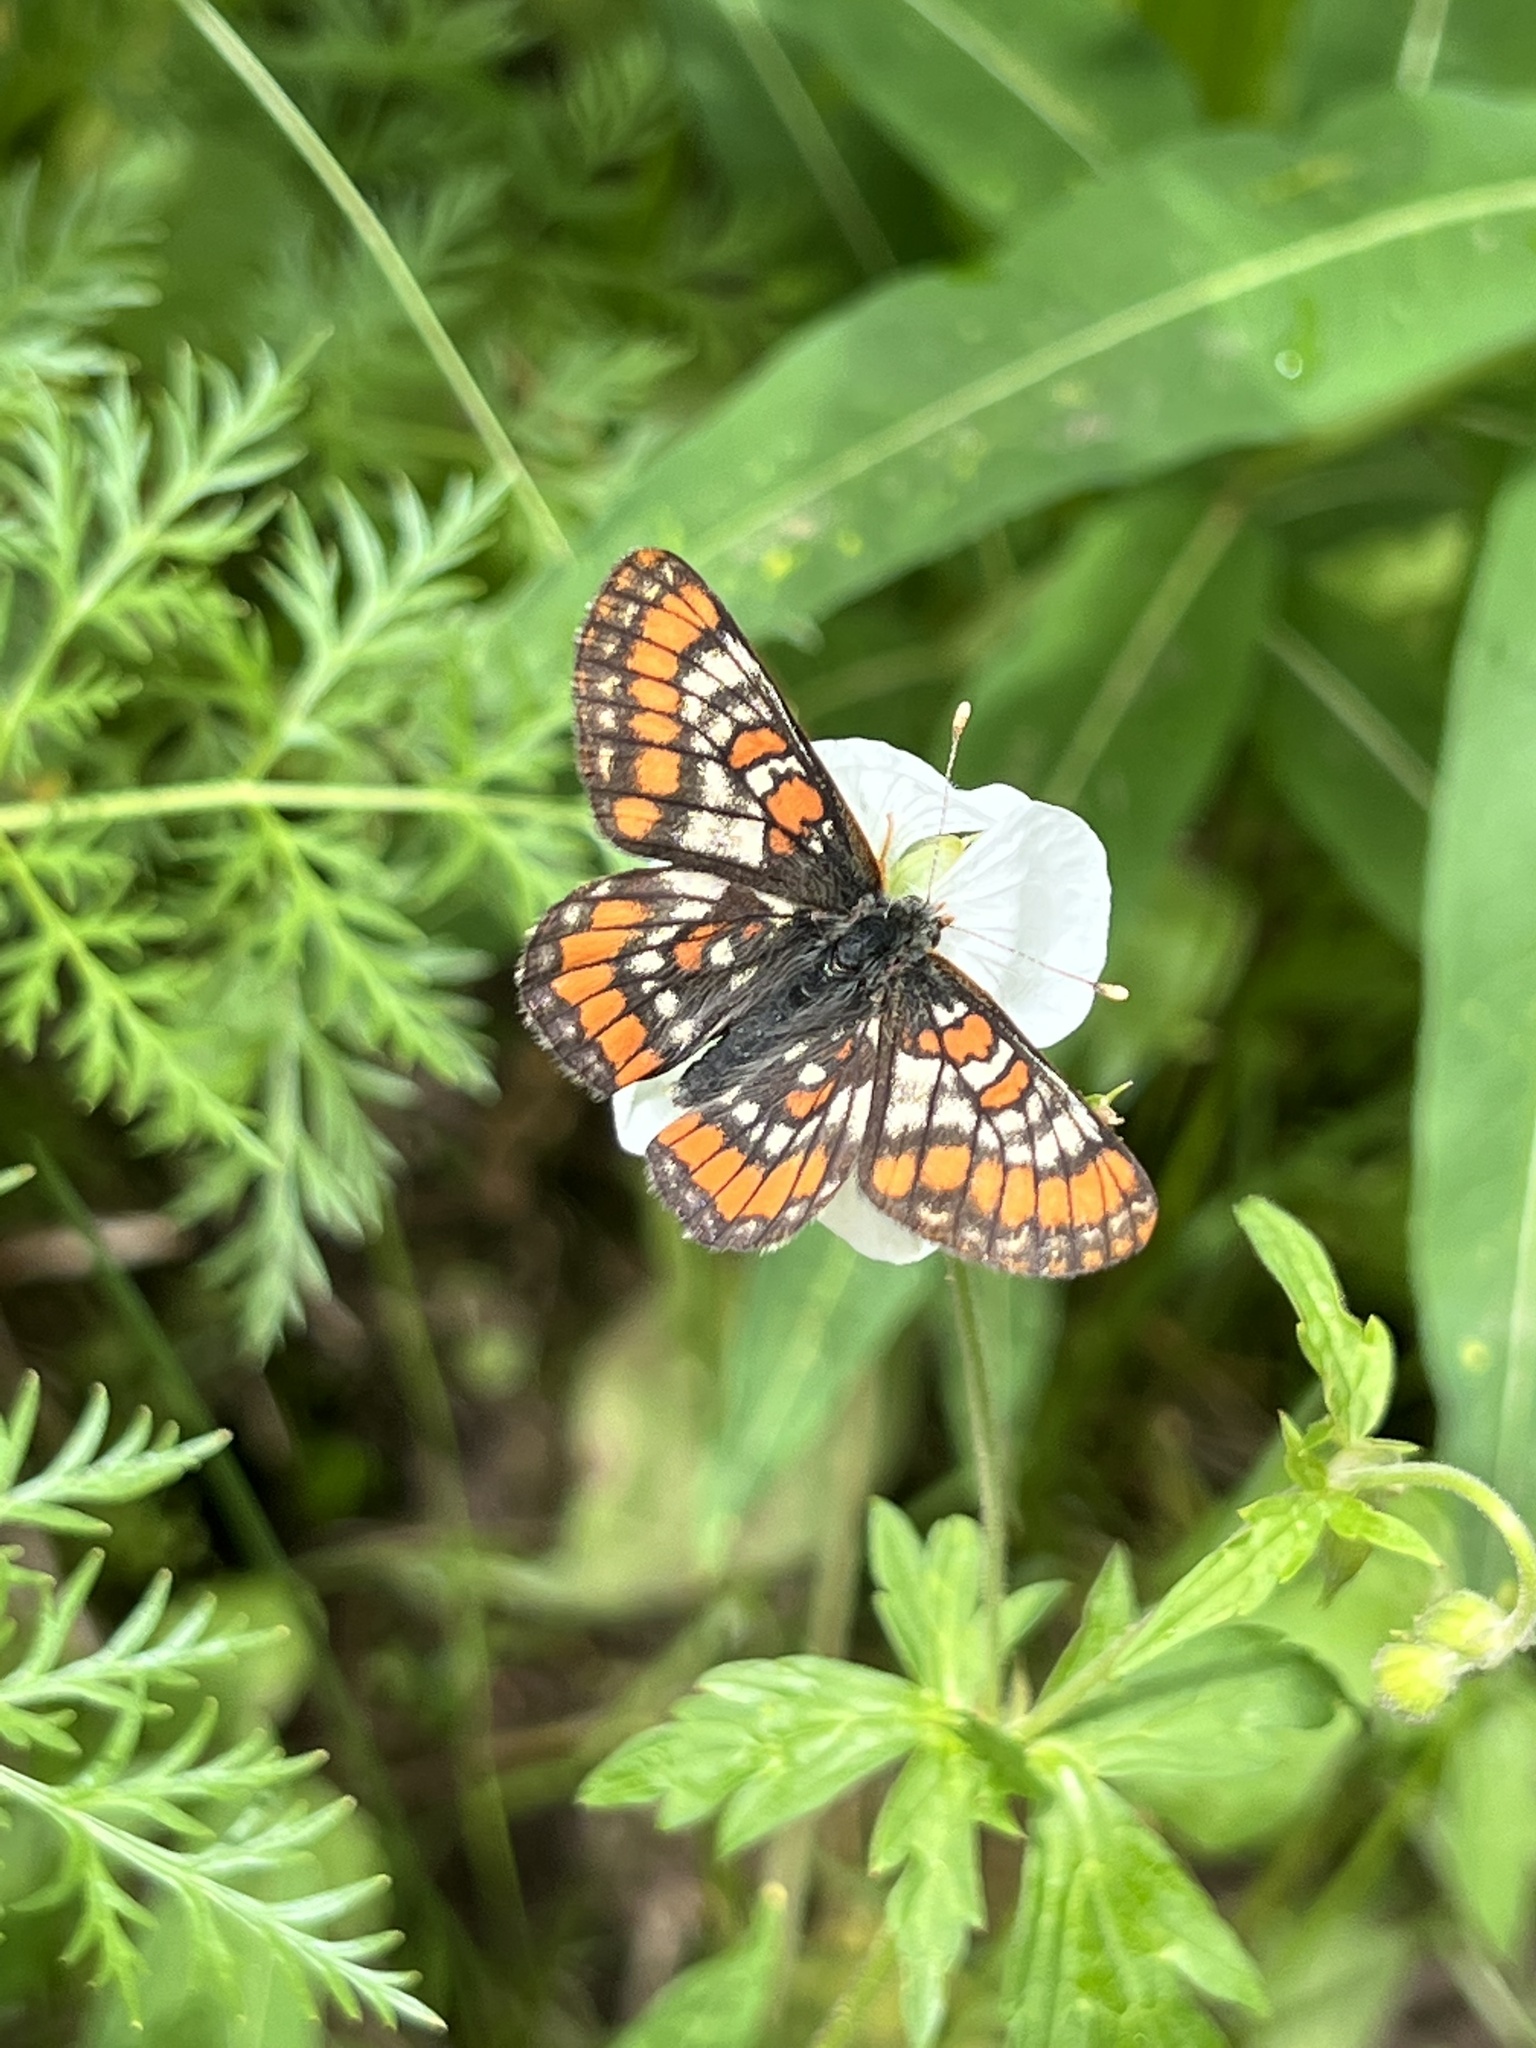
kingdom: Animalia
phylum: Arthropoda
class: Insecta
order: Lepidoptera
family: Nymphalidae
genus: Hypodryas
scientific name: Hypodryas gillettii
